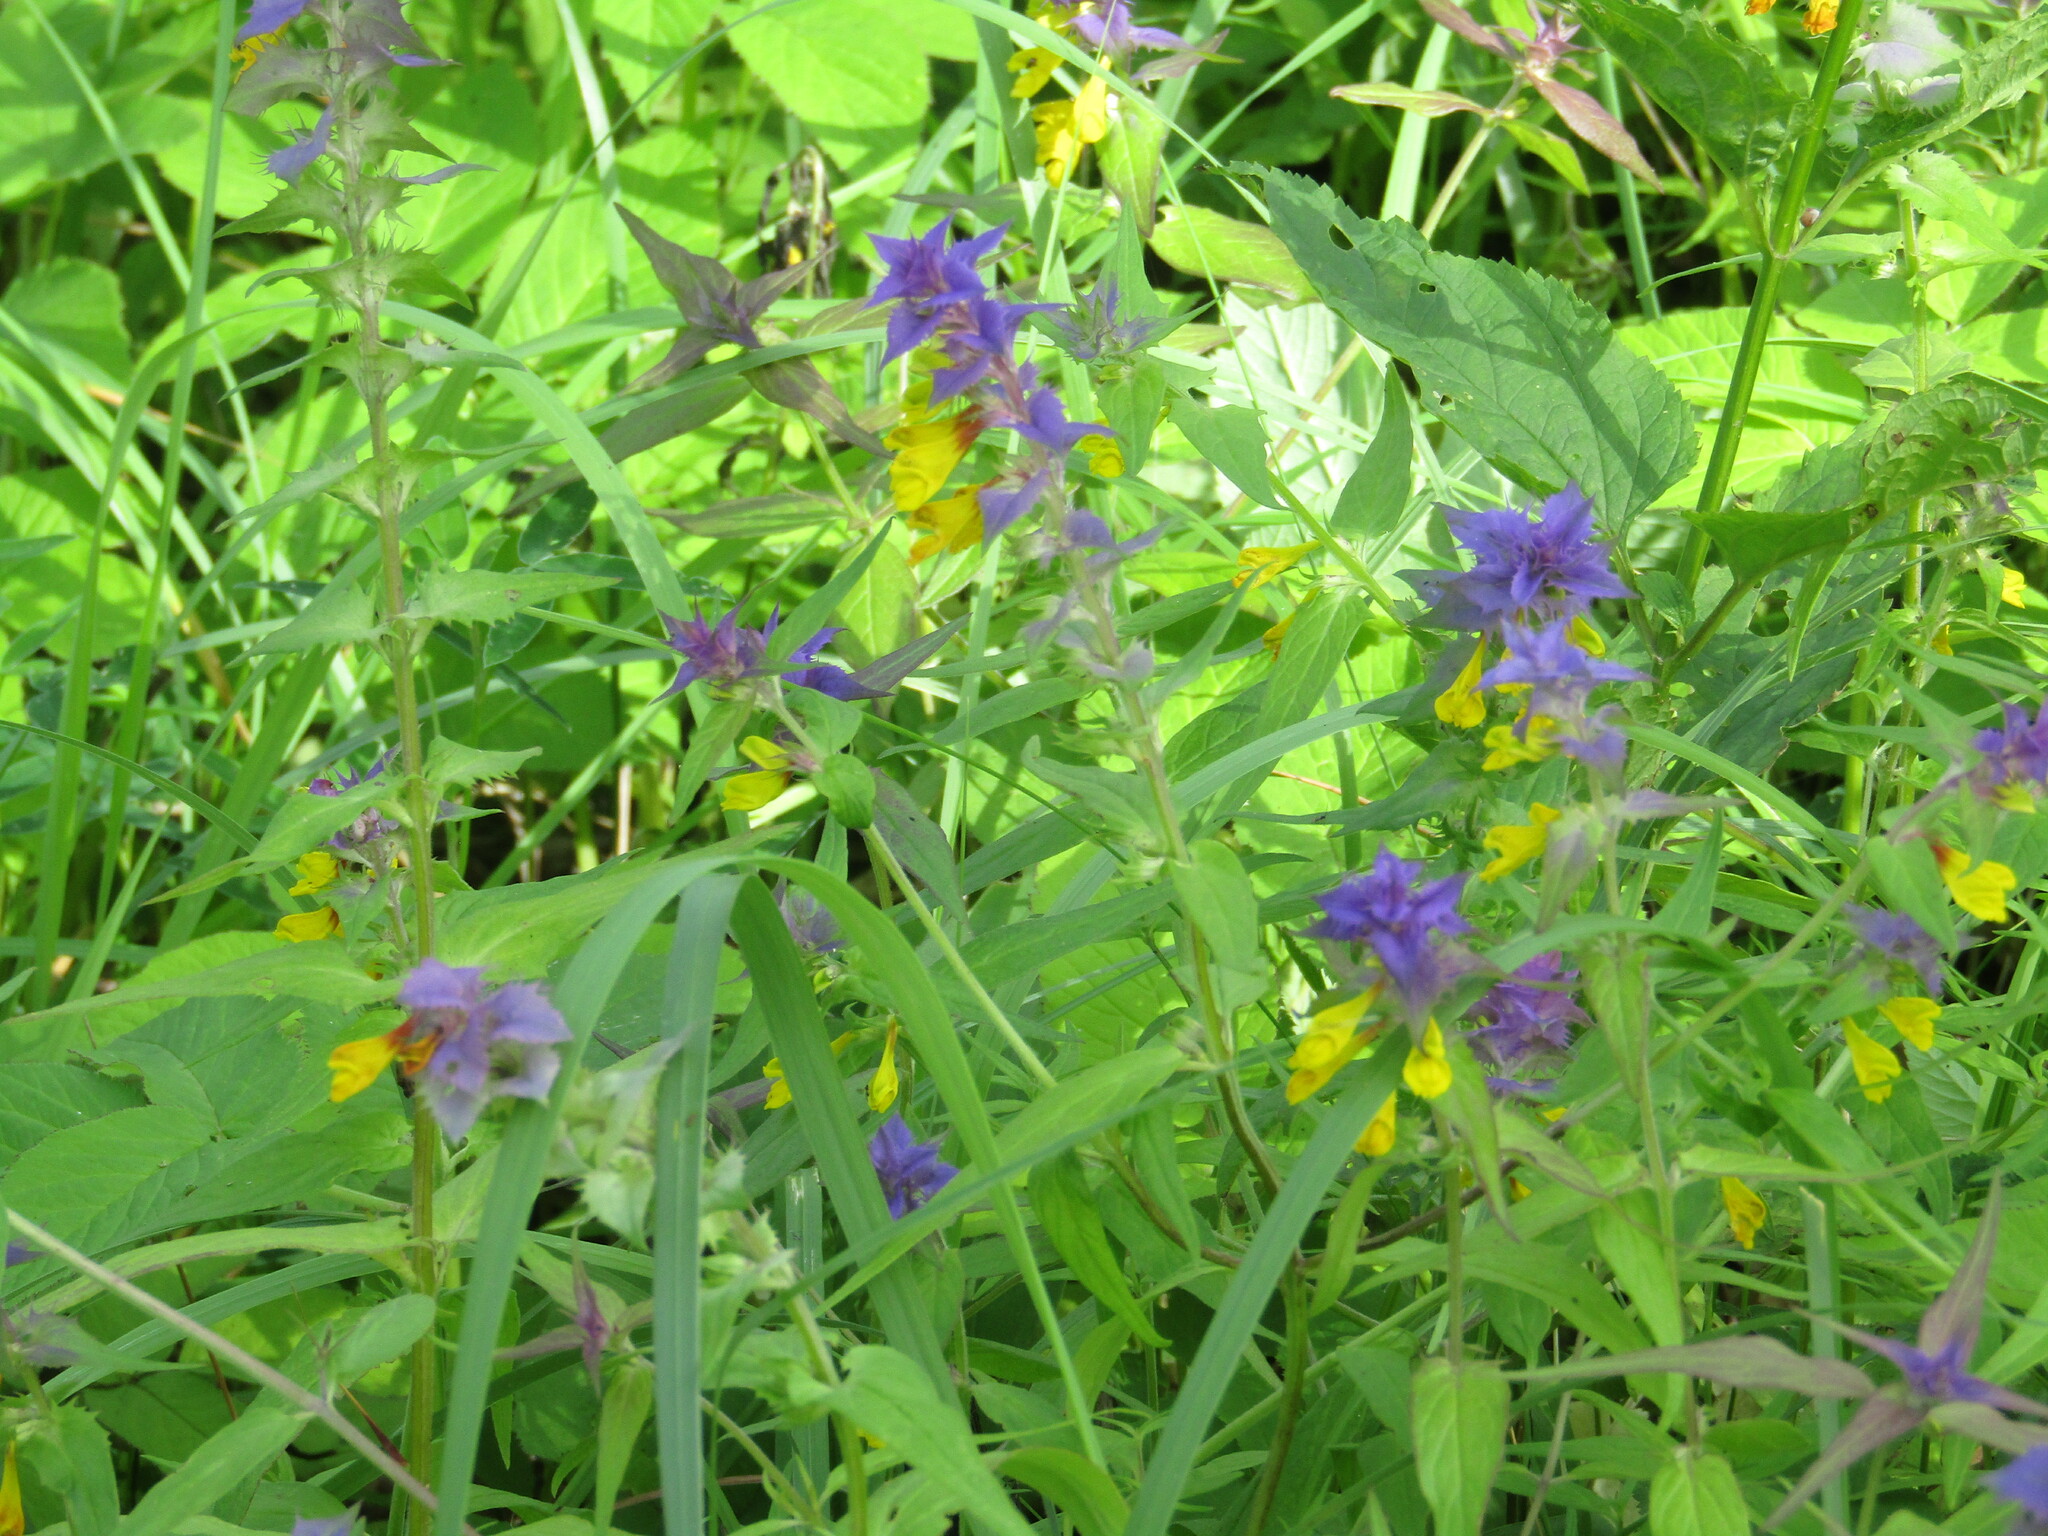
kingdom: Plantae
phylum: Tracheophyta
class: Magnoliopsida
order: Lamiales
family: Orobanchaceae
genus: Melampyrum
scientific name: Melampyrum nemorosum
